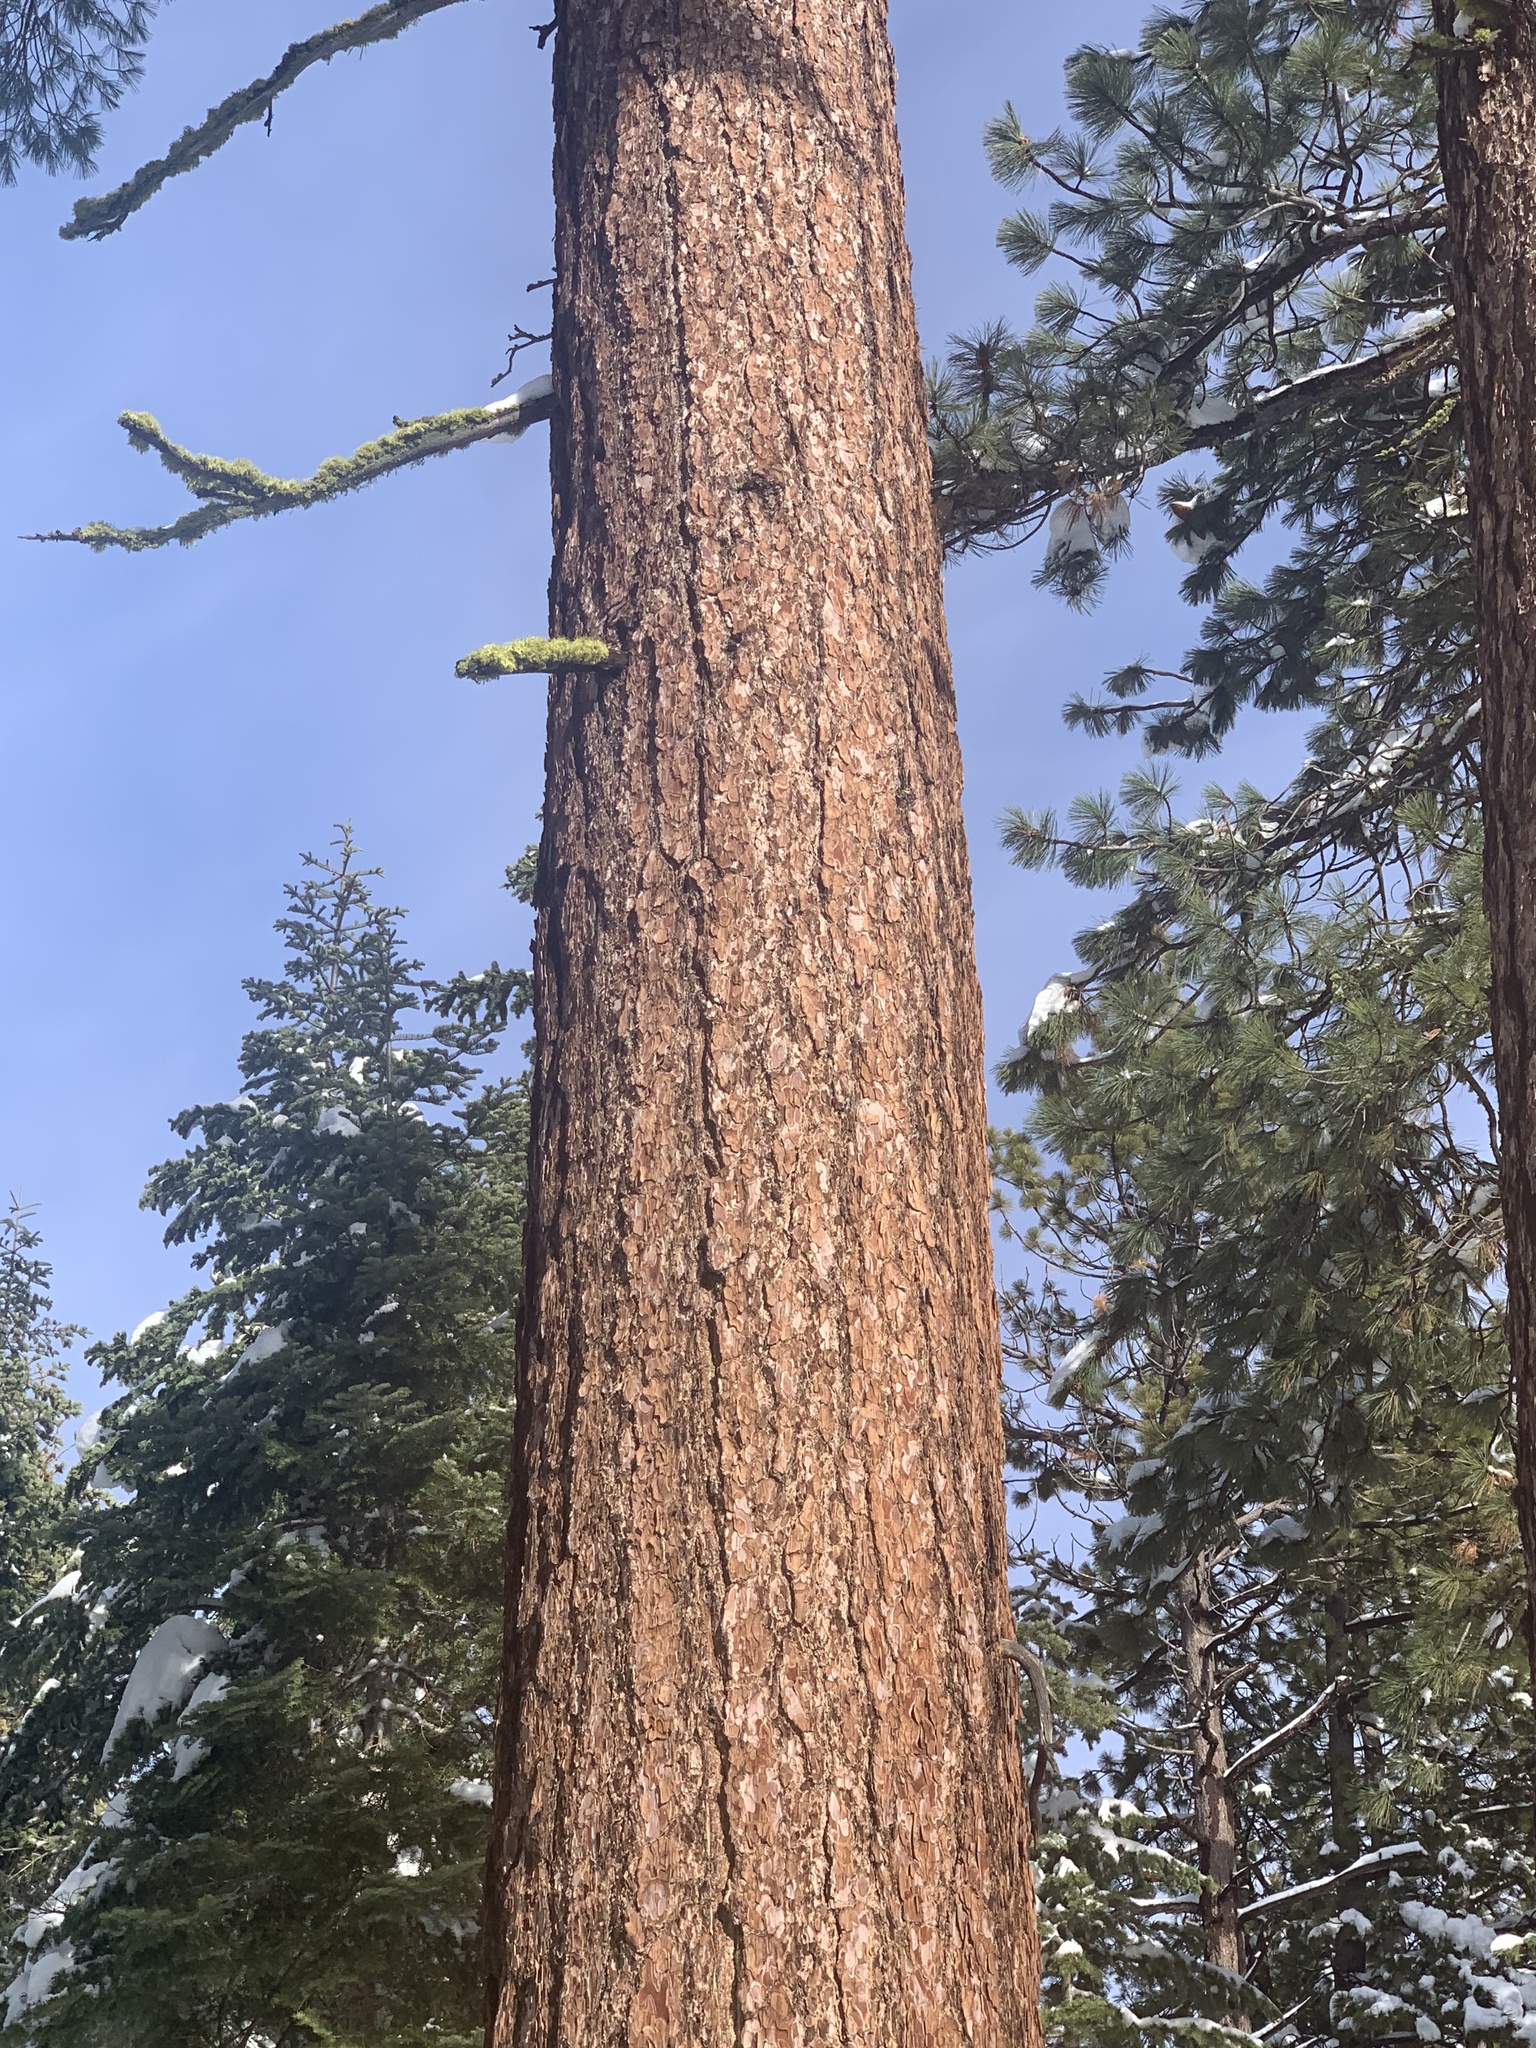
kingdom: Plantae
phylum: Tracheophyta
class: Pinopsida
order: Pinales
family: Pinaceae
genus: Pinus
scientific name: Pinus lambertiana
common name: Sugar pine
